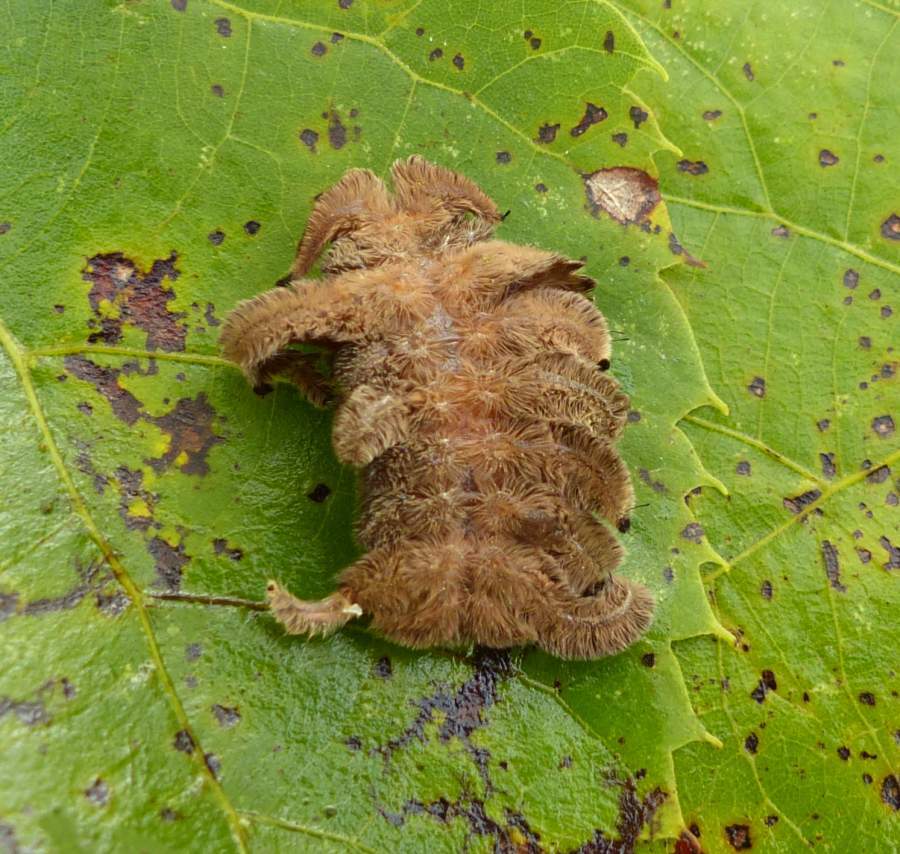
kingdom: Animalia
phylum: Arthropoda
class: Insecta
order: Lepidoptera
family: Limacodidae
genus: Phobetron
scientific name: Phobetron pithecium
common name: Hag moth
